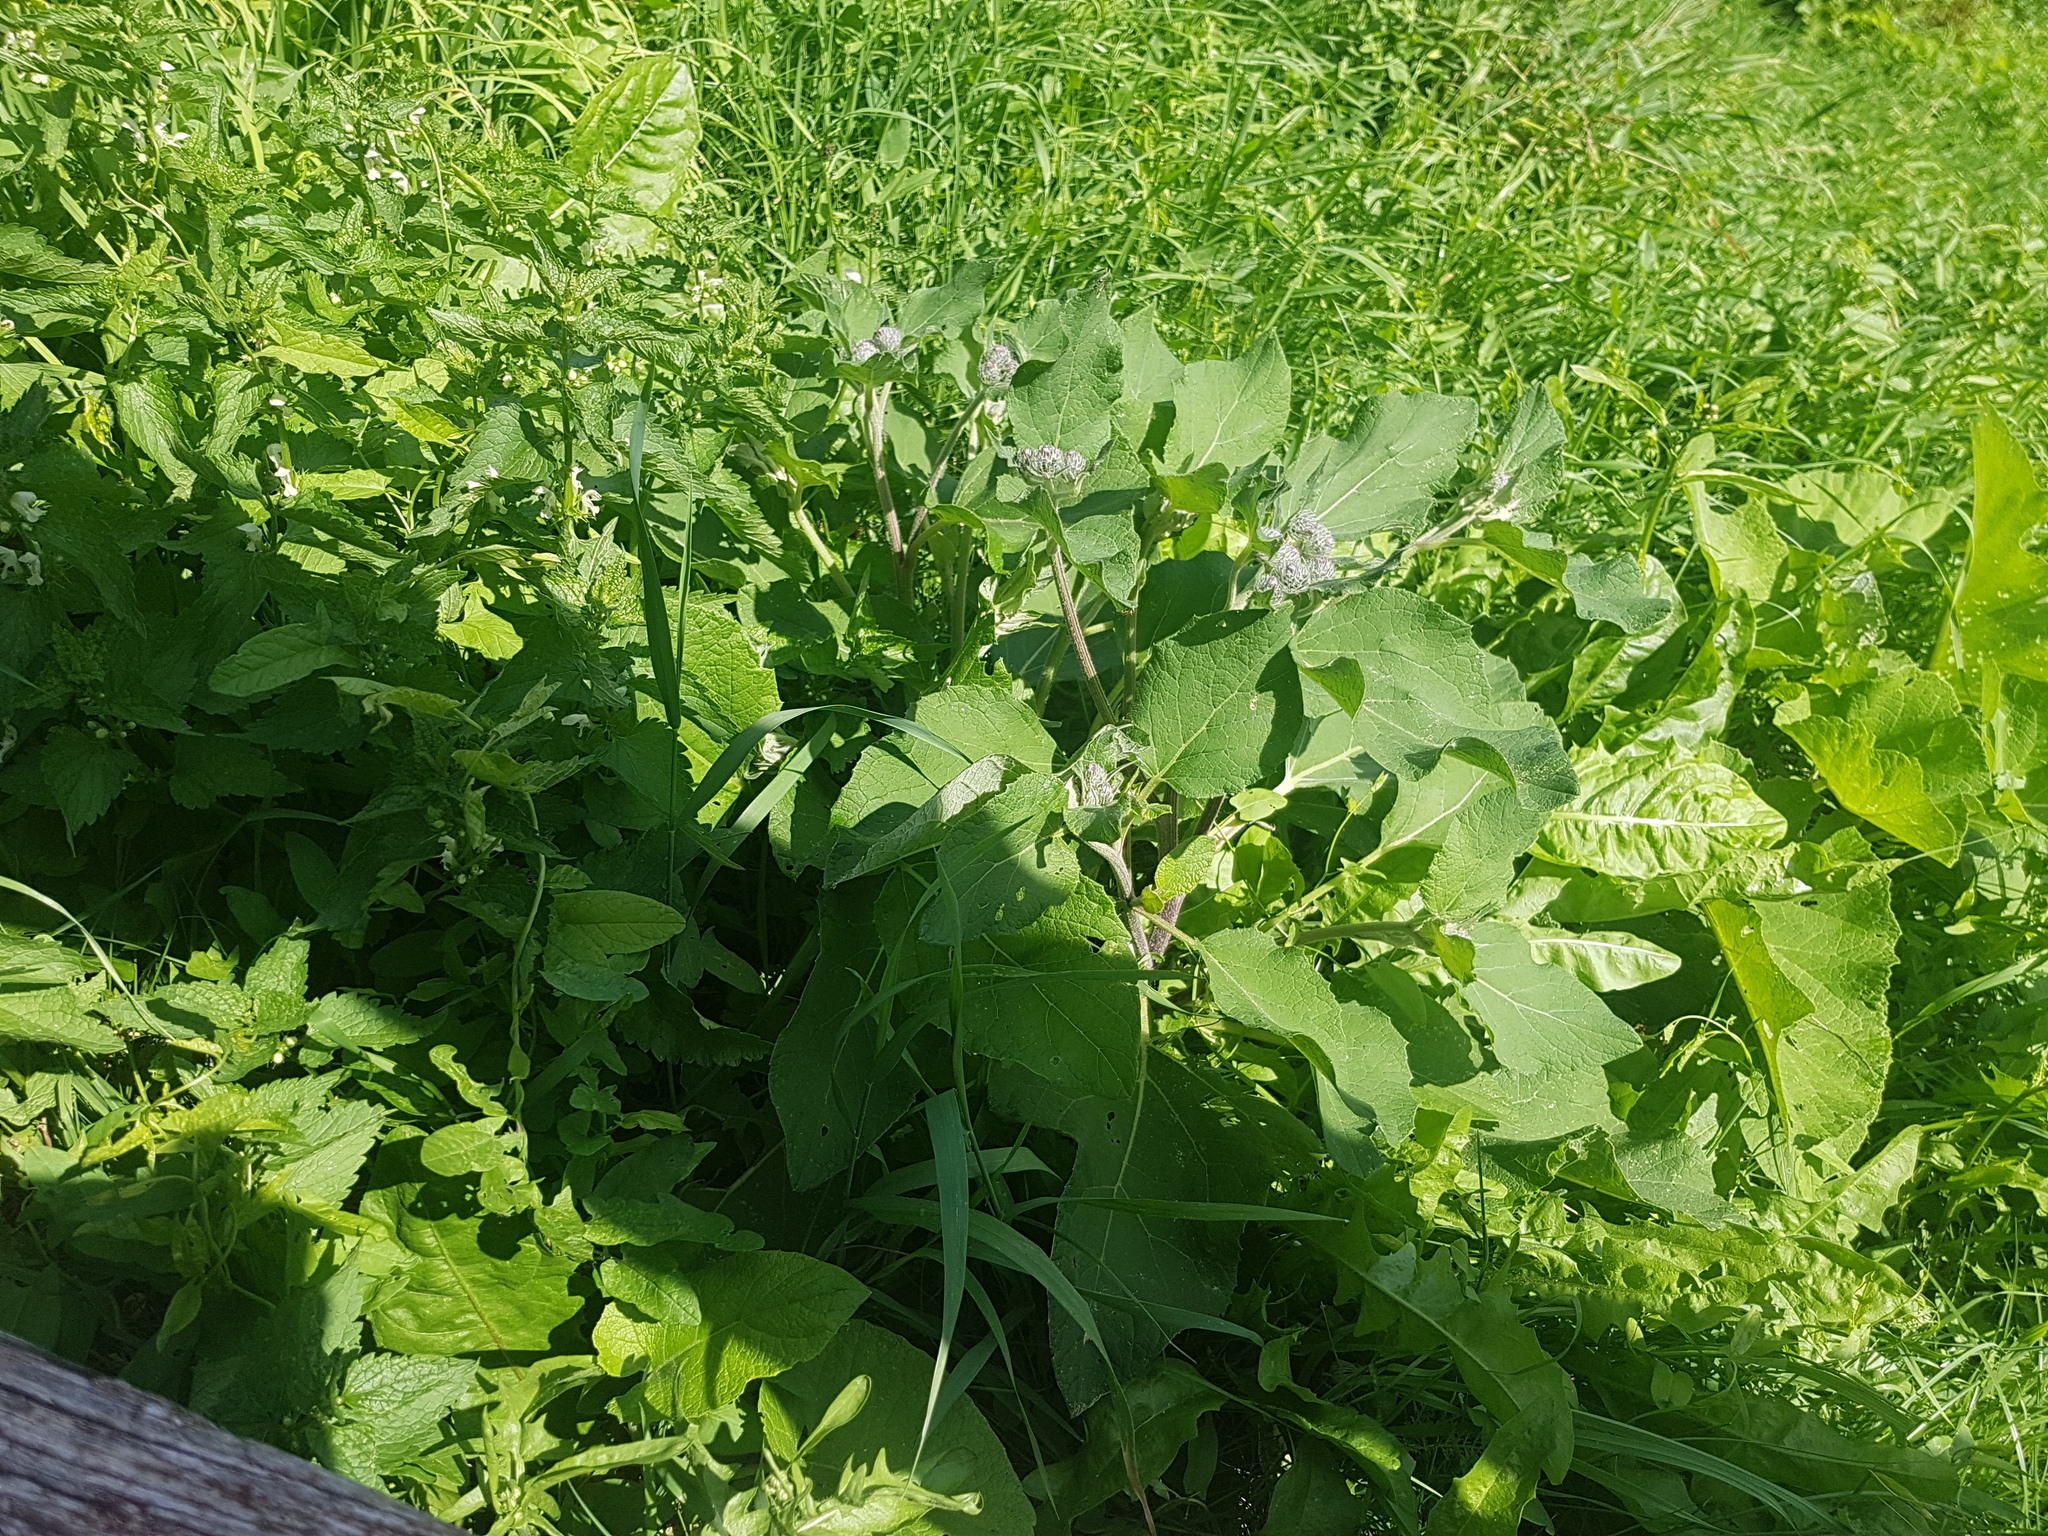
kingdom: Plantae
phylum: Tracheophyta
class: Magnoliopsida
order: Asterales
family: Asteraceae
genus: Arctium
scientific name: Arctium tomentosum
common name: Woolly burdock
